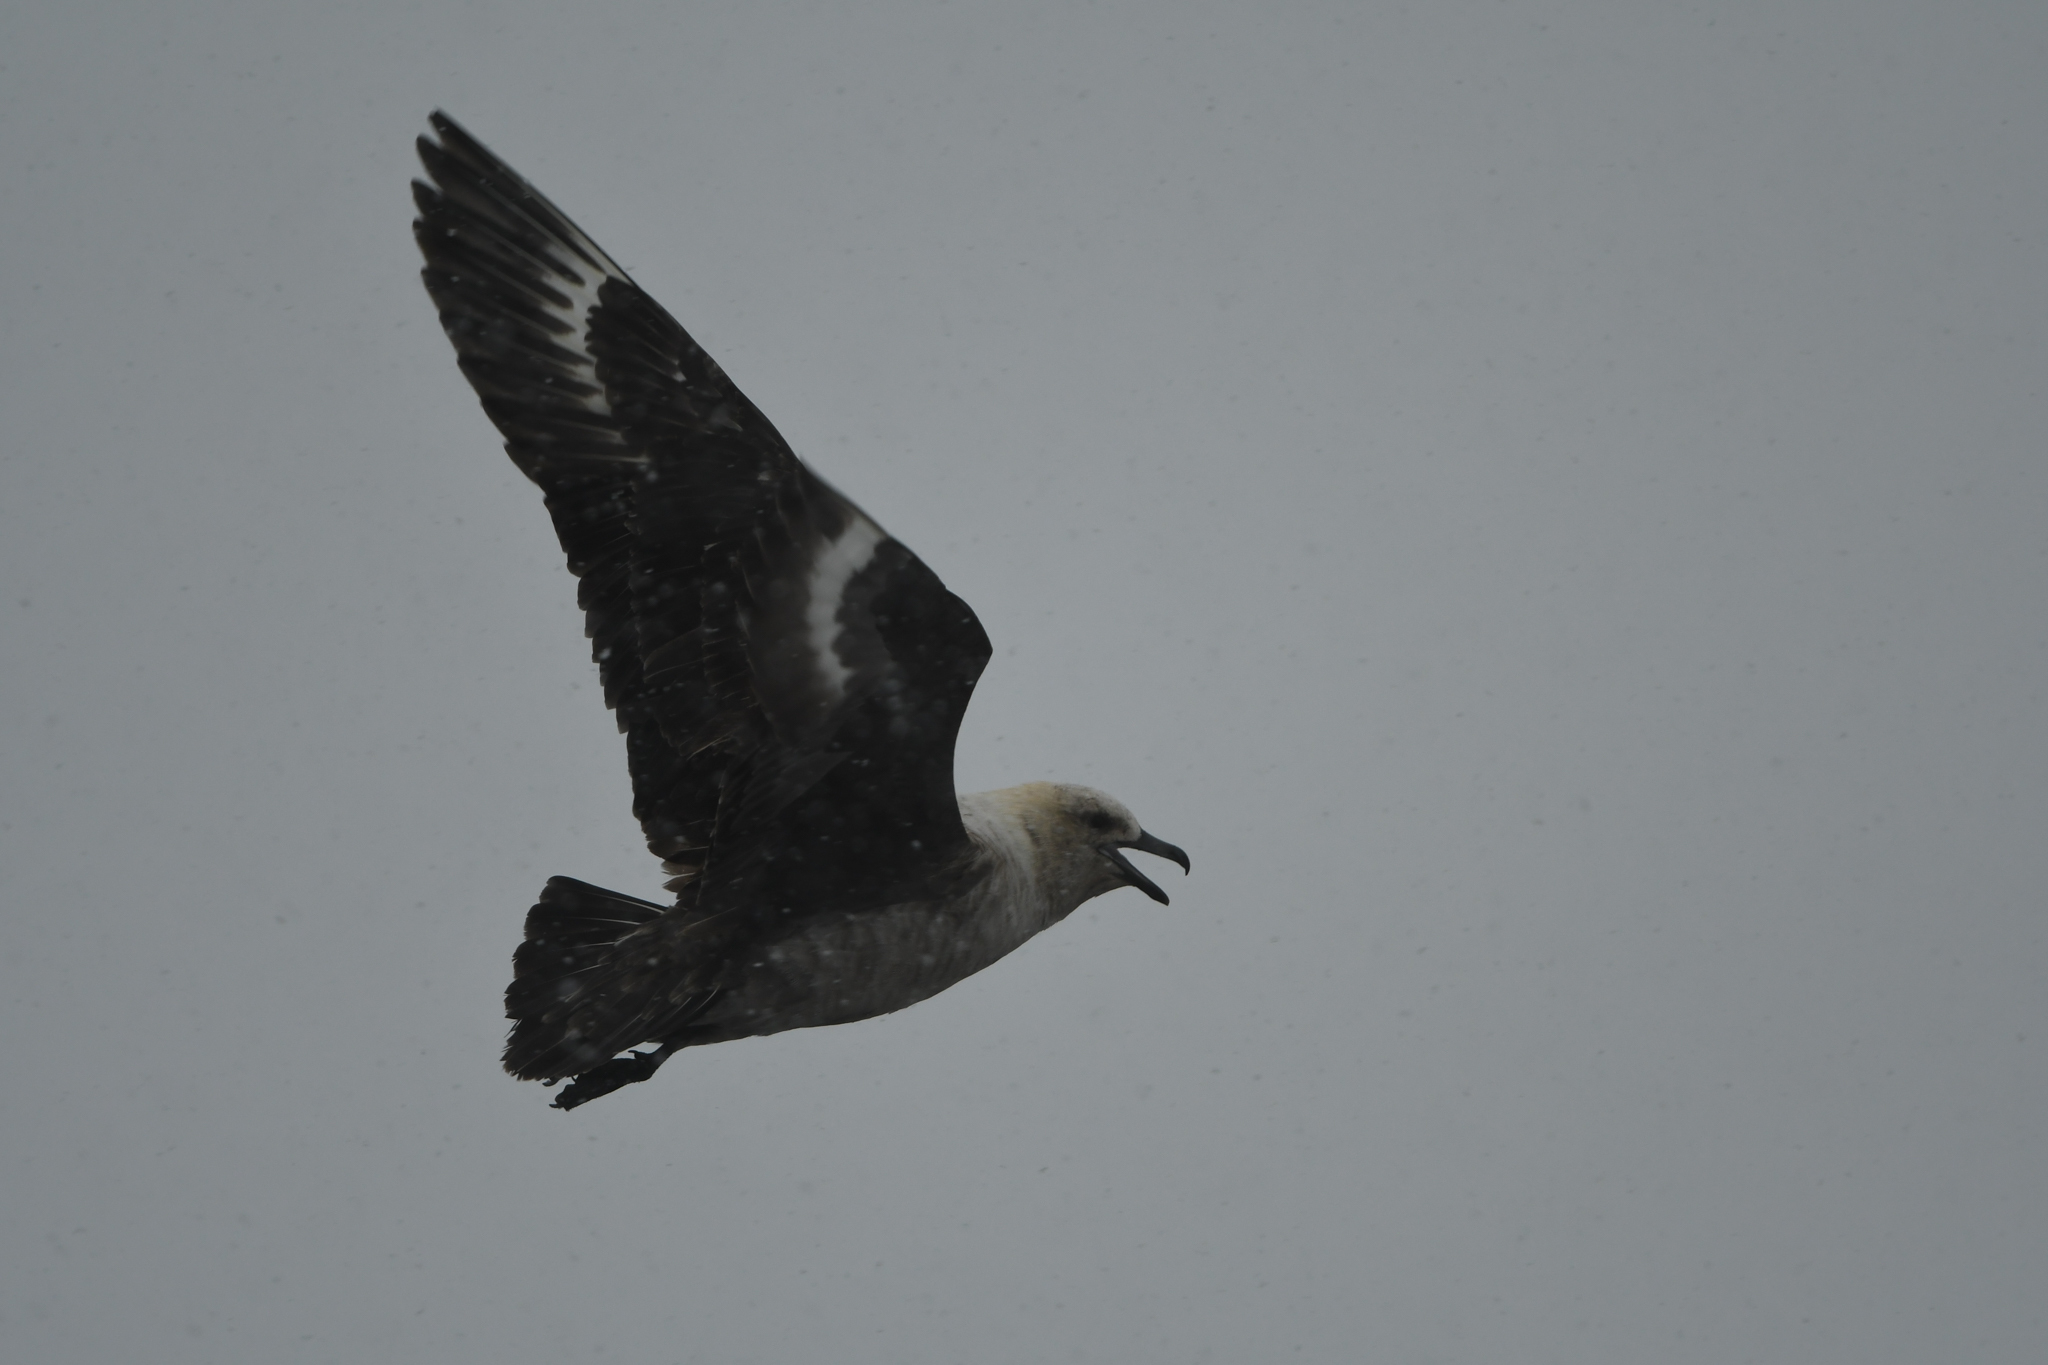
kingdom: Animalia
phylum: Chordata
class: Aves
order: Charadriiformes
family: Stercorariidae
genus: Stercorarius
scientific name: Stercorarius maccormicki
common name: South polar skua
